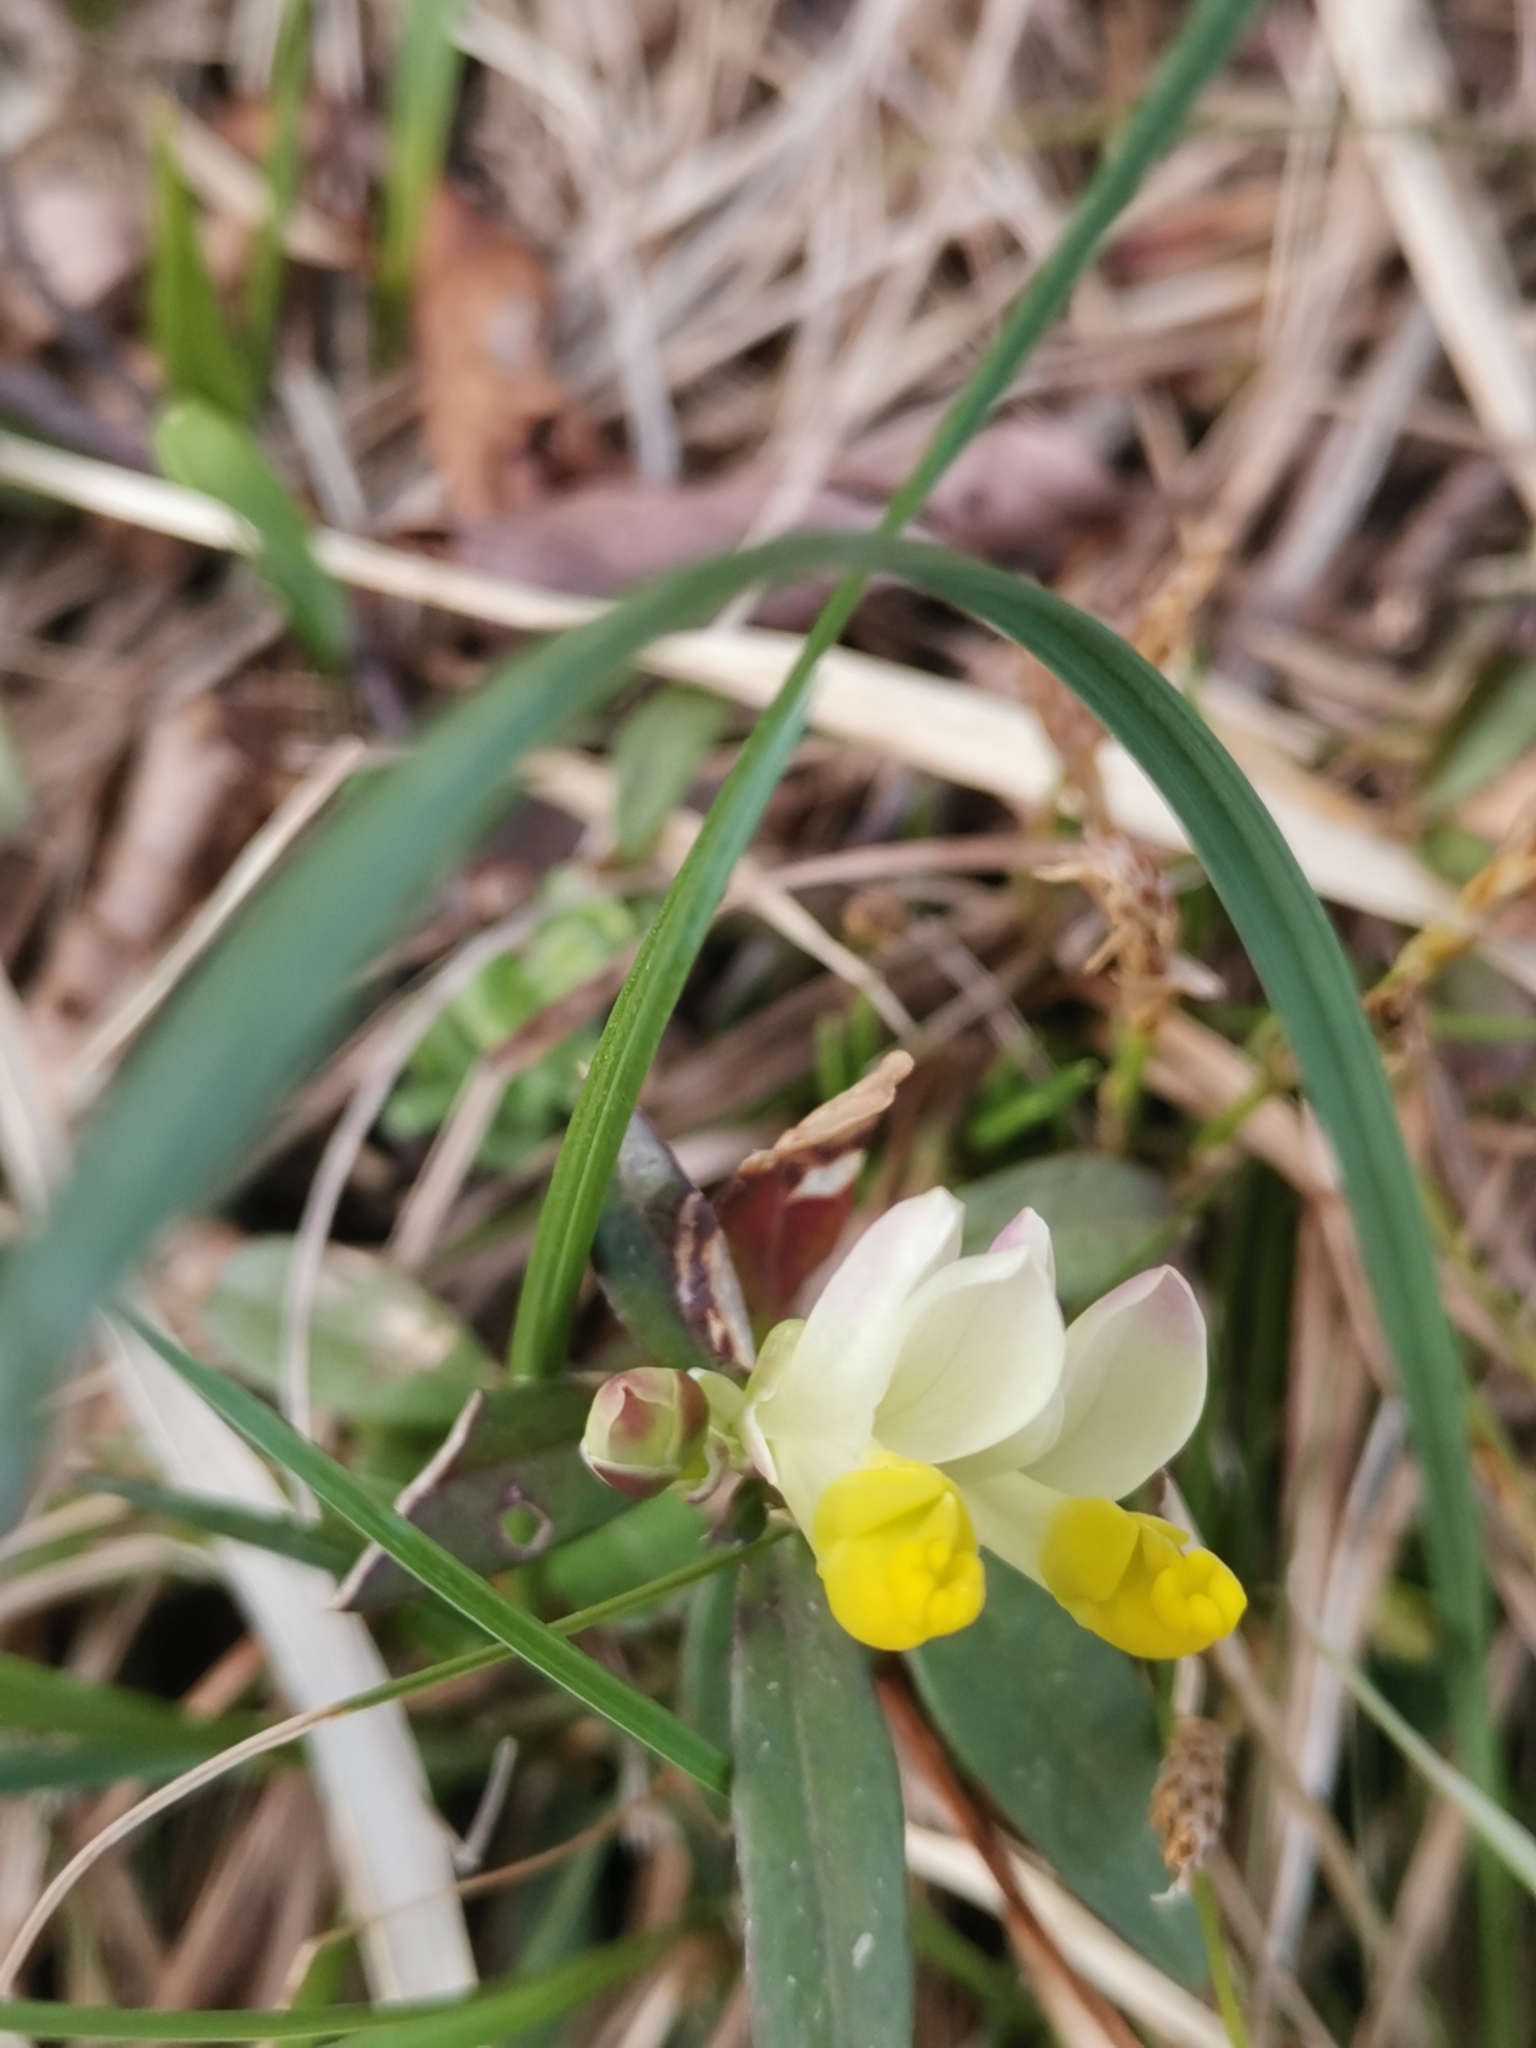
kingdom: Plantae
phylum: Tracheophyta
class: Magnoliopsida
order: Fabales
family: Polygalaceae
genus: Polygaloides
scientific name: Polygaloides chamaebuxus
